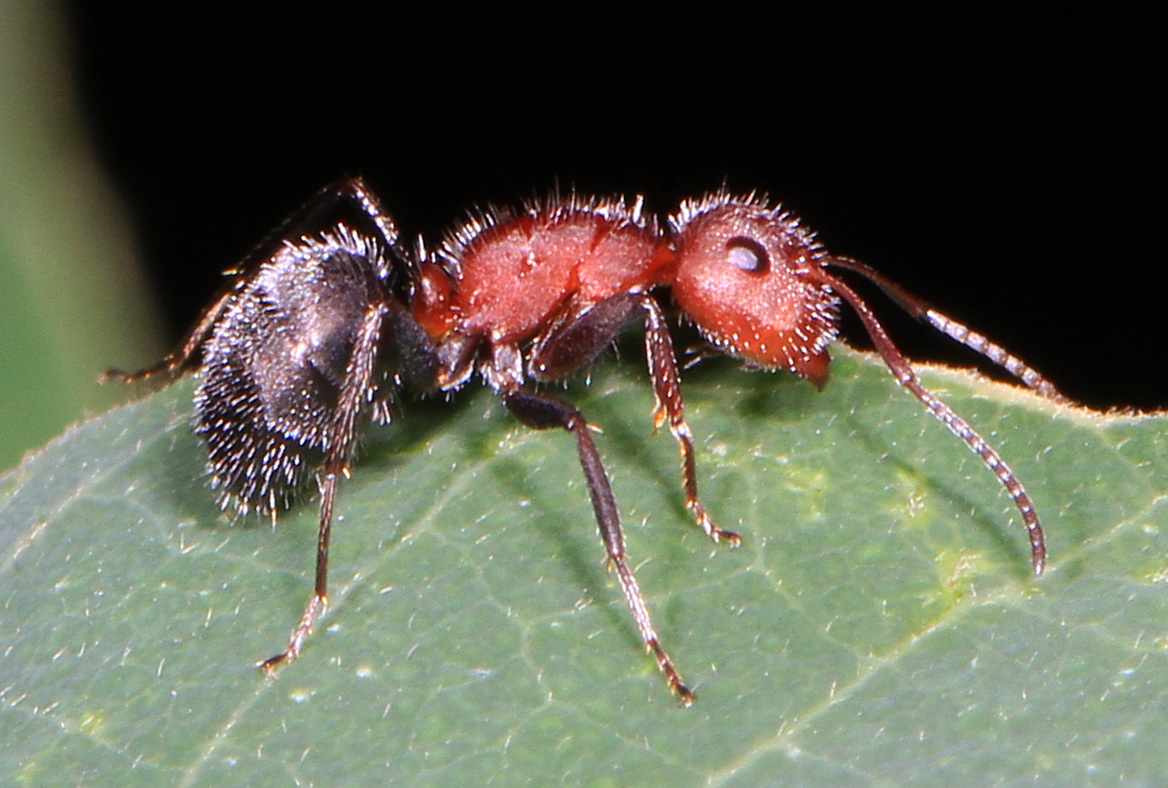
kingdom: Animalia
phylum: Arthropoda
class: Insecta
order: Hymenoptera
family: Formicidae
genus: Camponotus
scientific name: Camponotus planatus
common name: Compact carpenter ant
